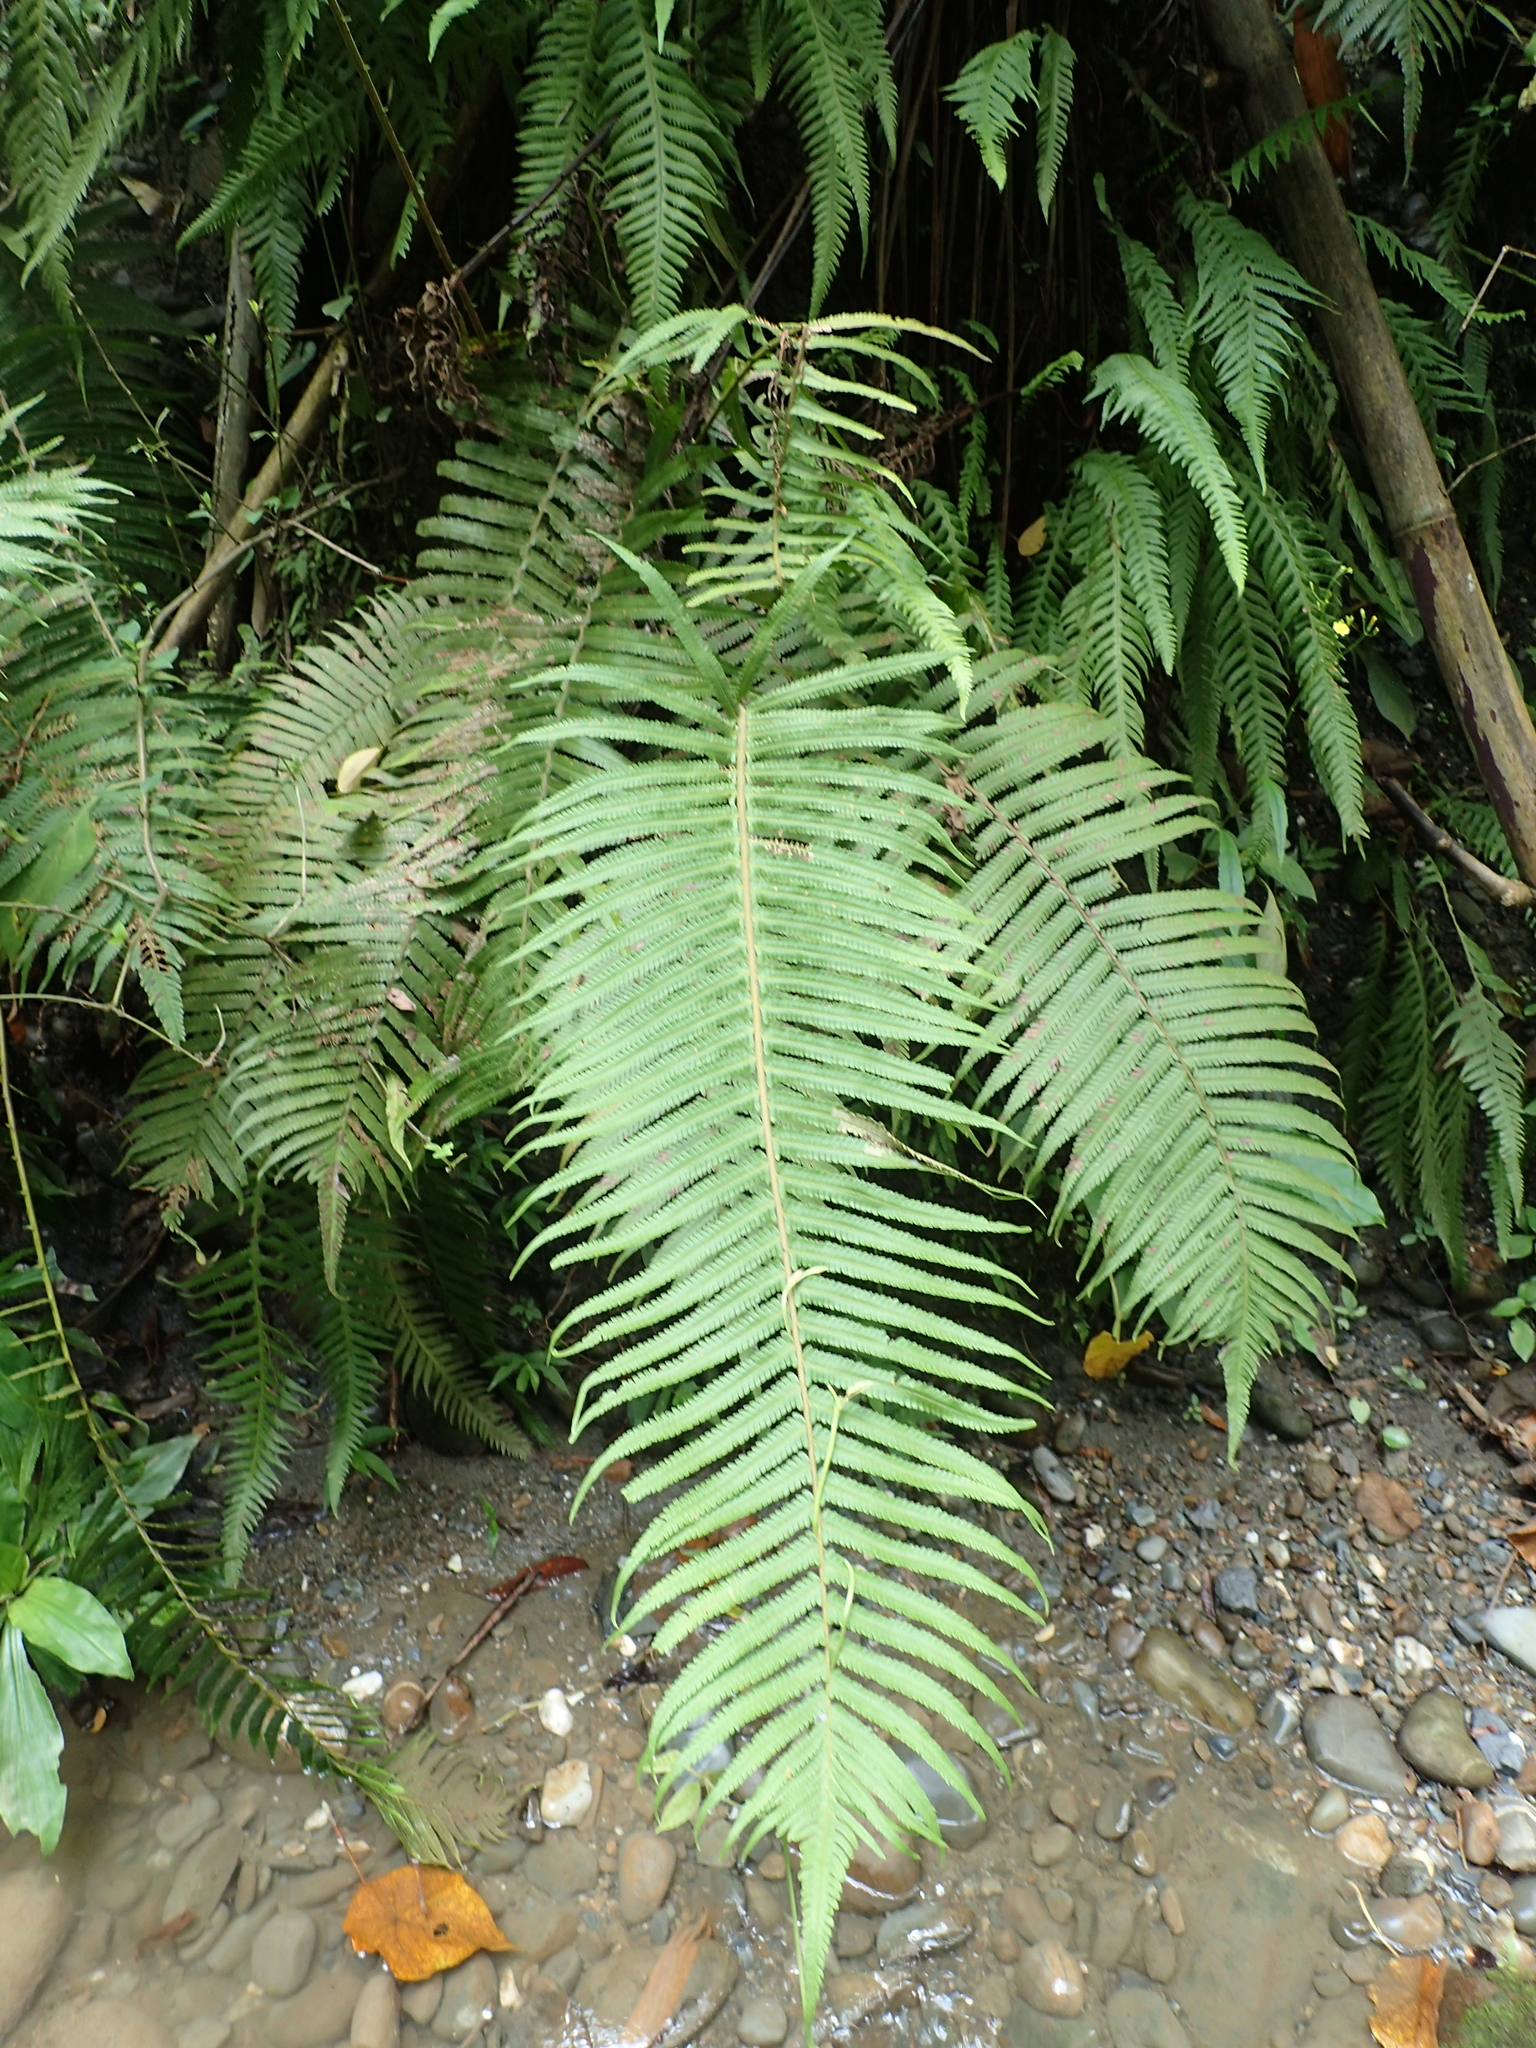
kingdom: Plantae
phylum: Tracheophyta
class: Polypodiopsida
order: Polypodiales
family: Thelypteridaceae
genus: Sphaerostephanos
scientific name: Sphaerostephanos taiwanensis
